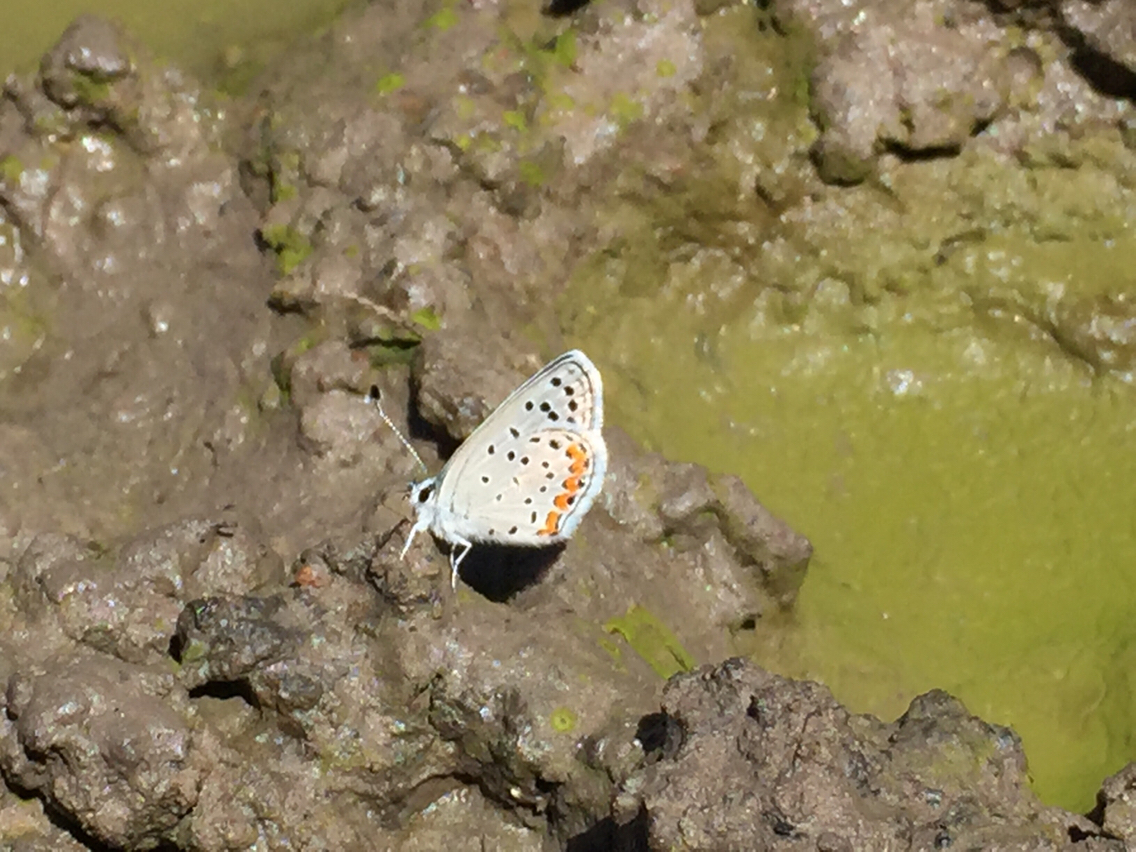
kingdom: Animalia
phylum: Arthropoda
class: Insecta
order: Lepidoptera
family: Lycaenidae
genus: Icaricia
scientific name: Icaricia lupini
